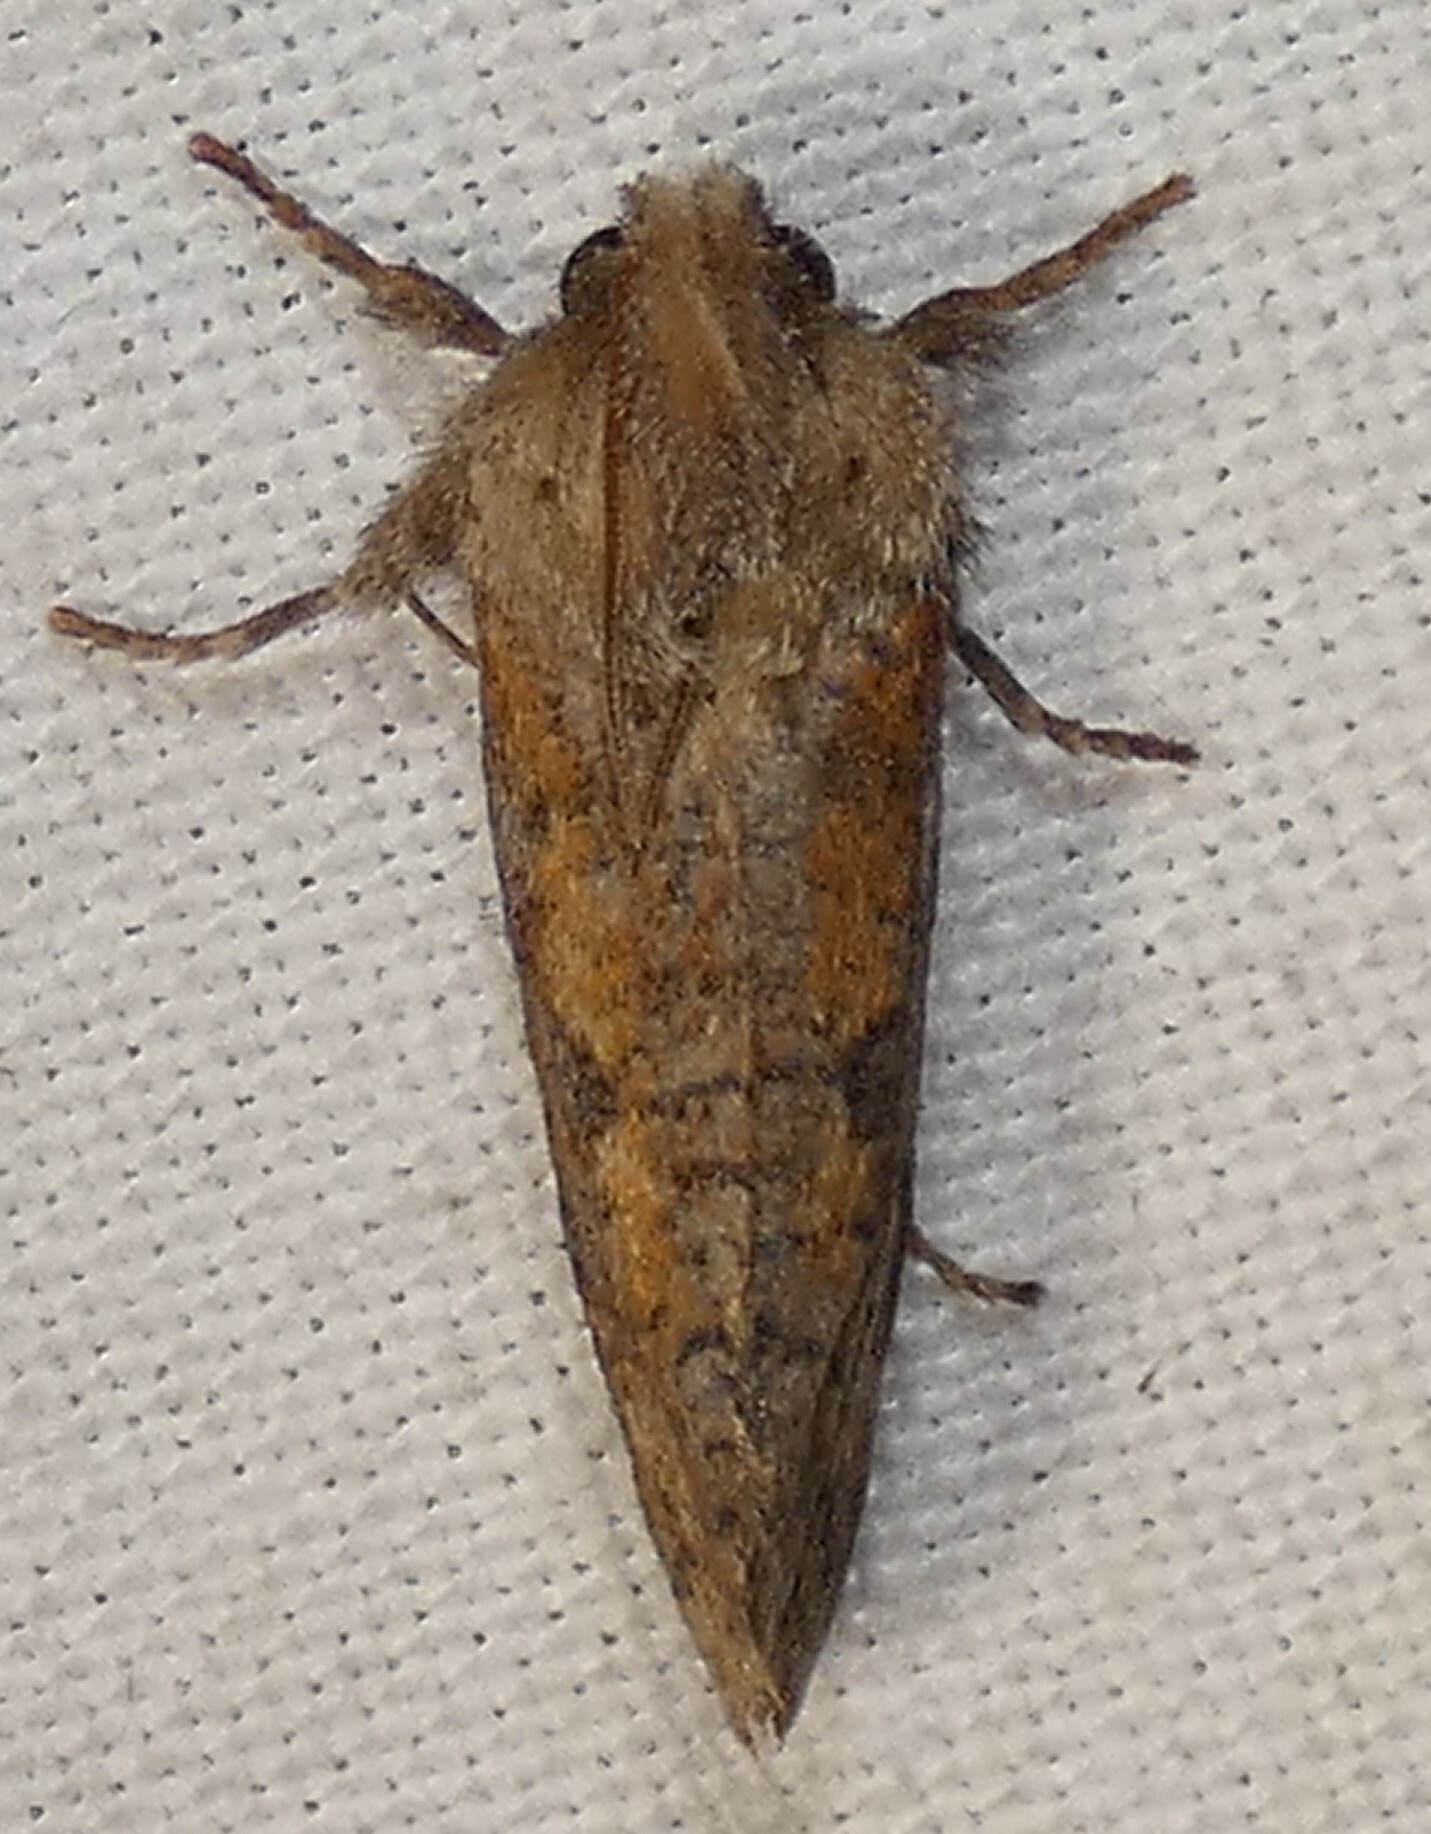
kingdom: Animalia
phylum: Arthropoda
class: Insecta
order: Lepidoptera
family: Tineidae
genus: Acrolophus
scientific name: Acrolophus plumifrontella
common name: Eastern grass tubeworm moth
